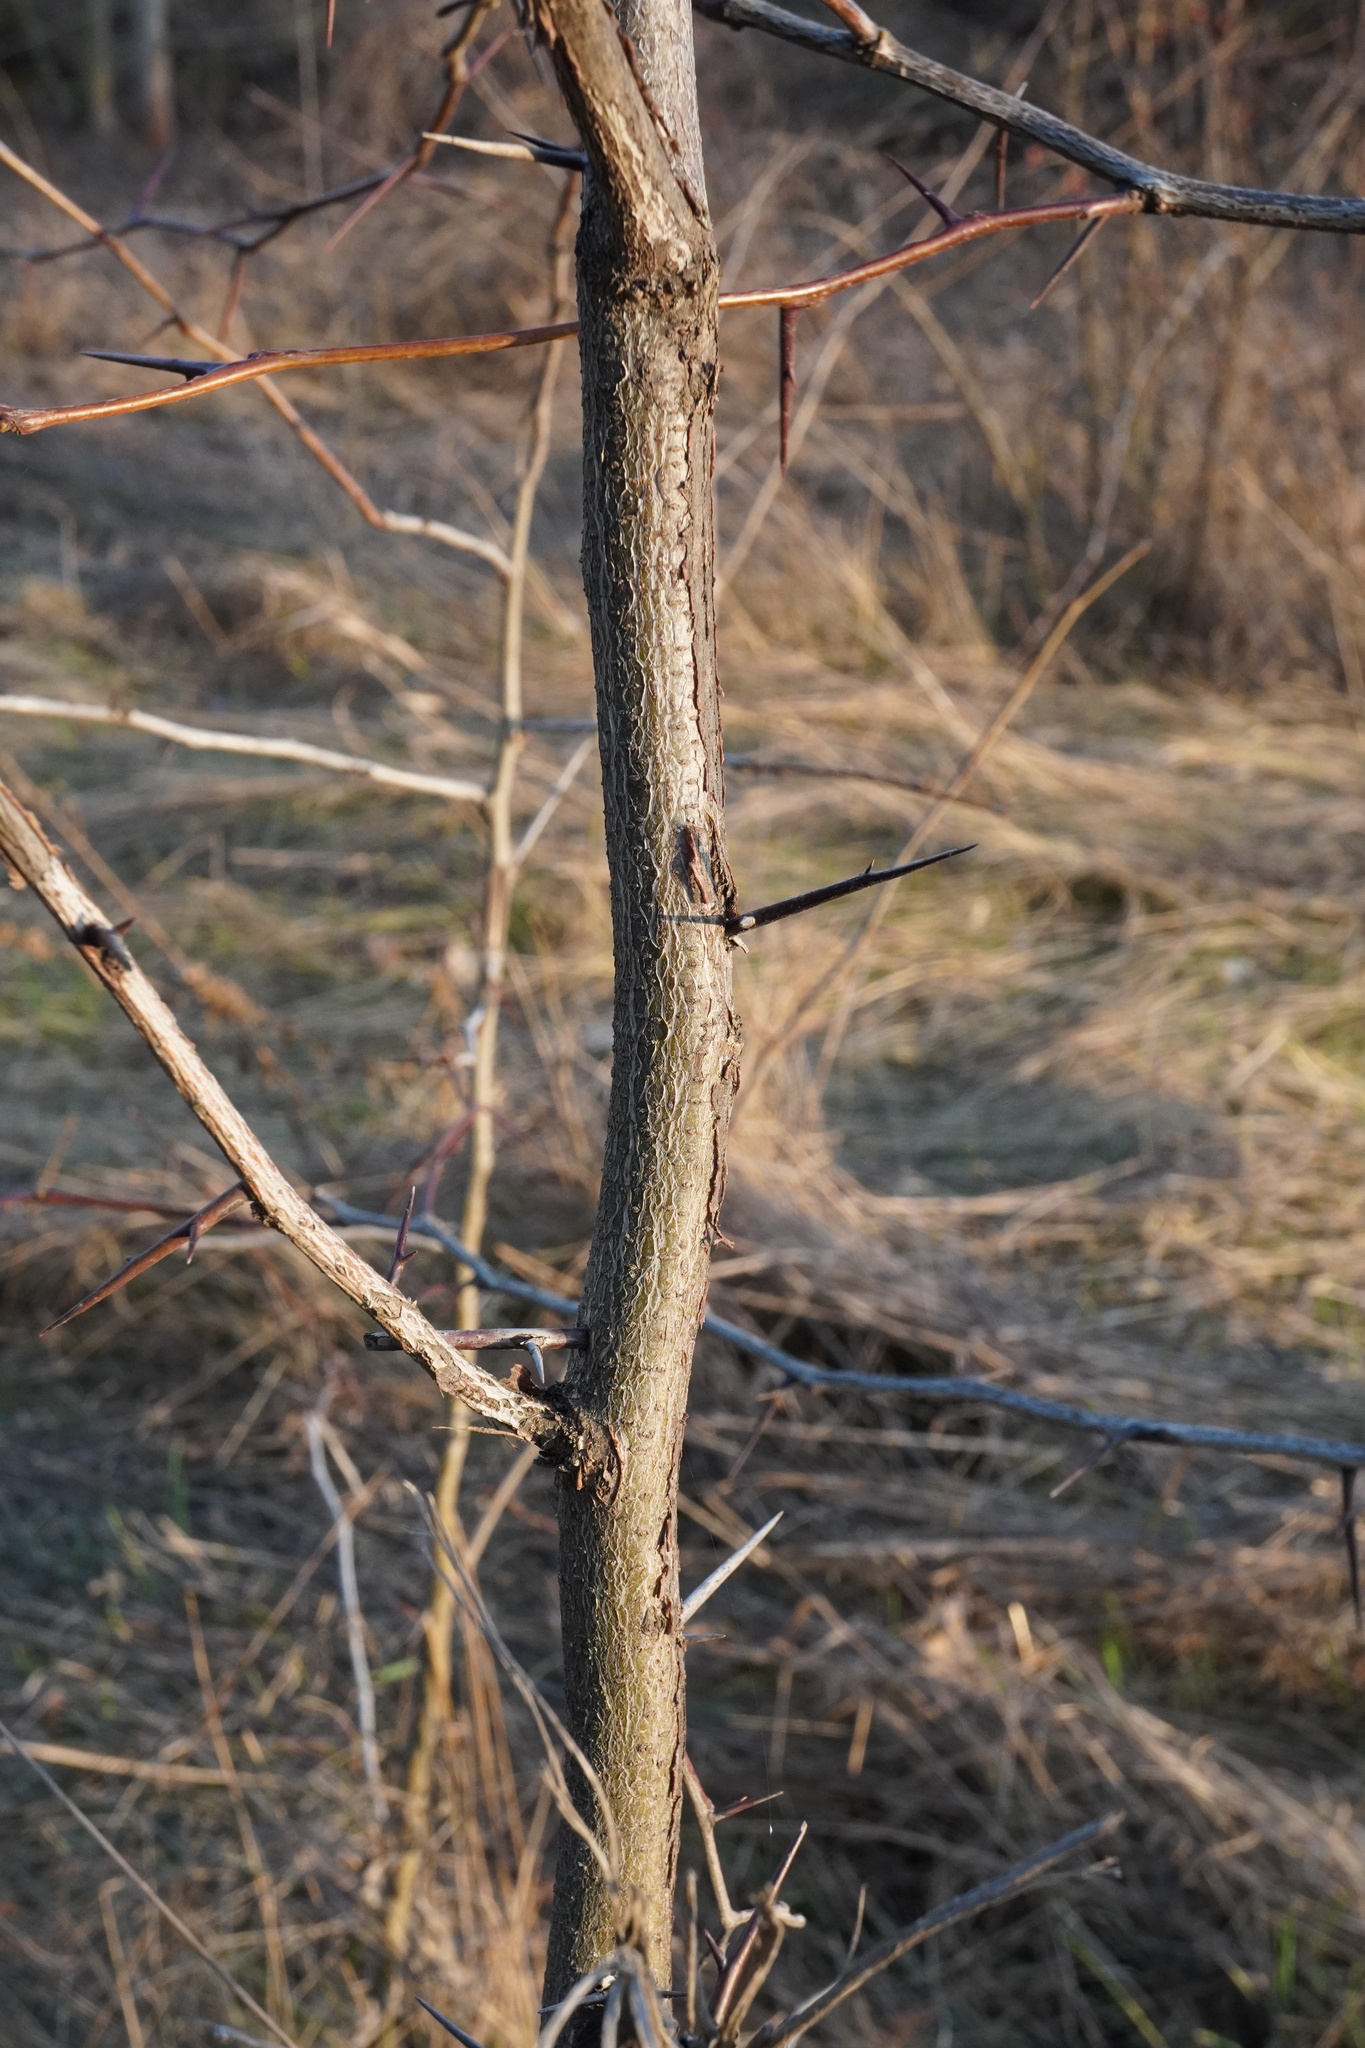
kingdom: Plantae
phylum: Tracheophyta
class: Magnoliopsida
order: Fabales
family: Fabaceae
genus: Gleditsia
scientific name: Gleditsia triacanthos
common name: Common honeylocust
